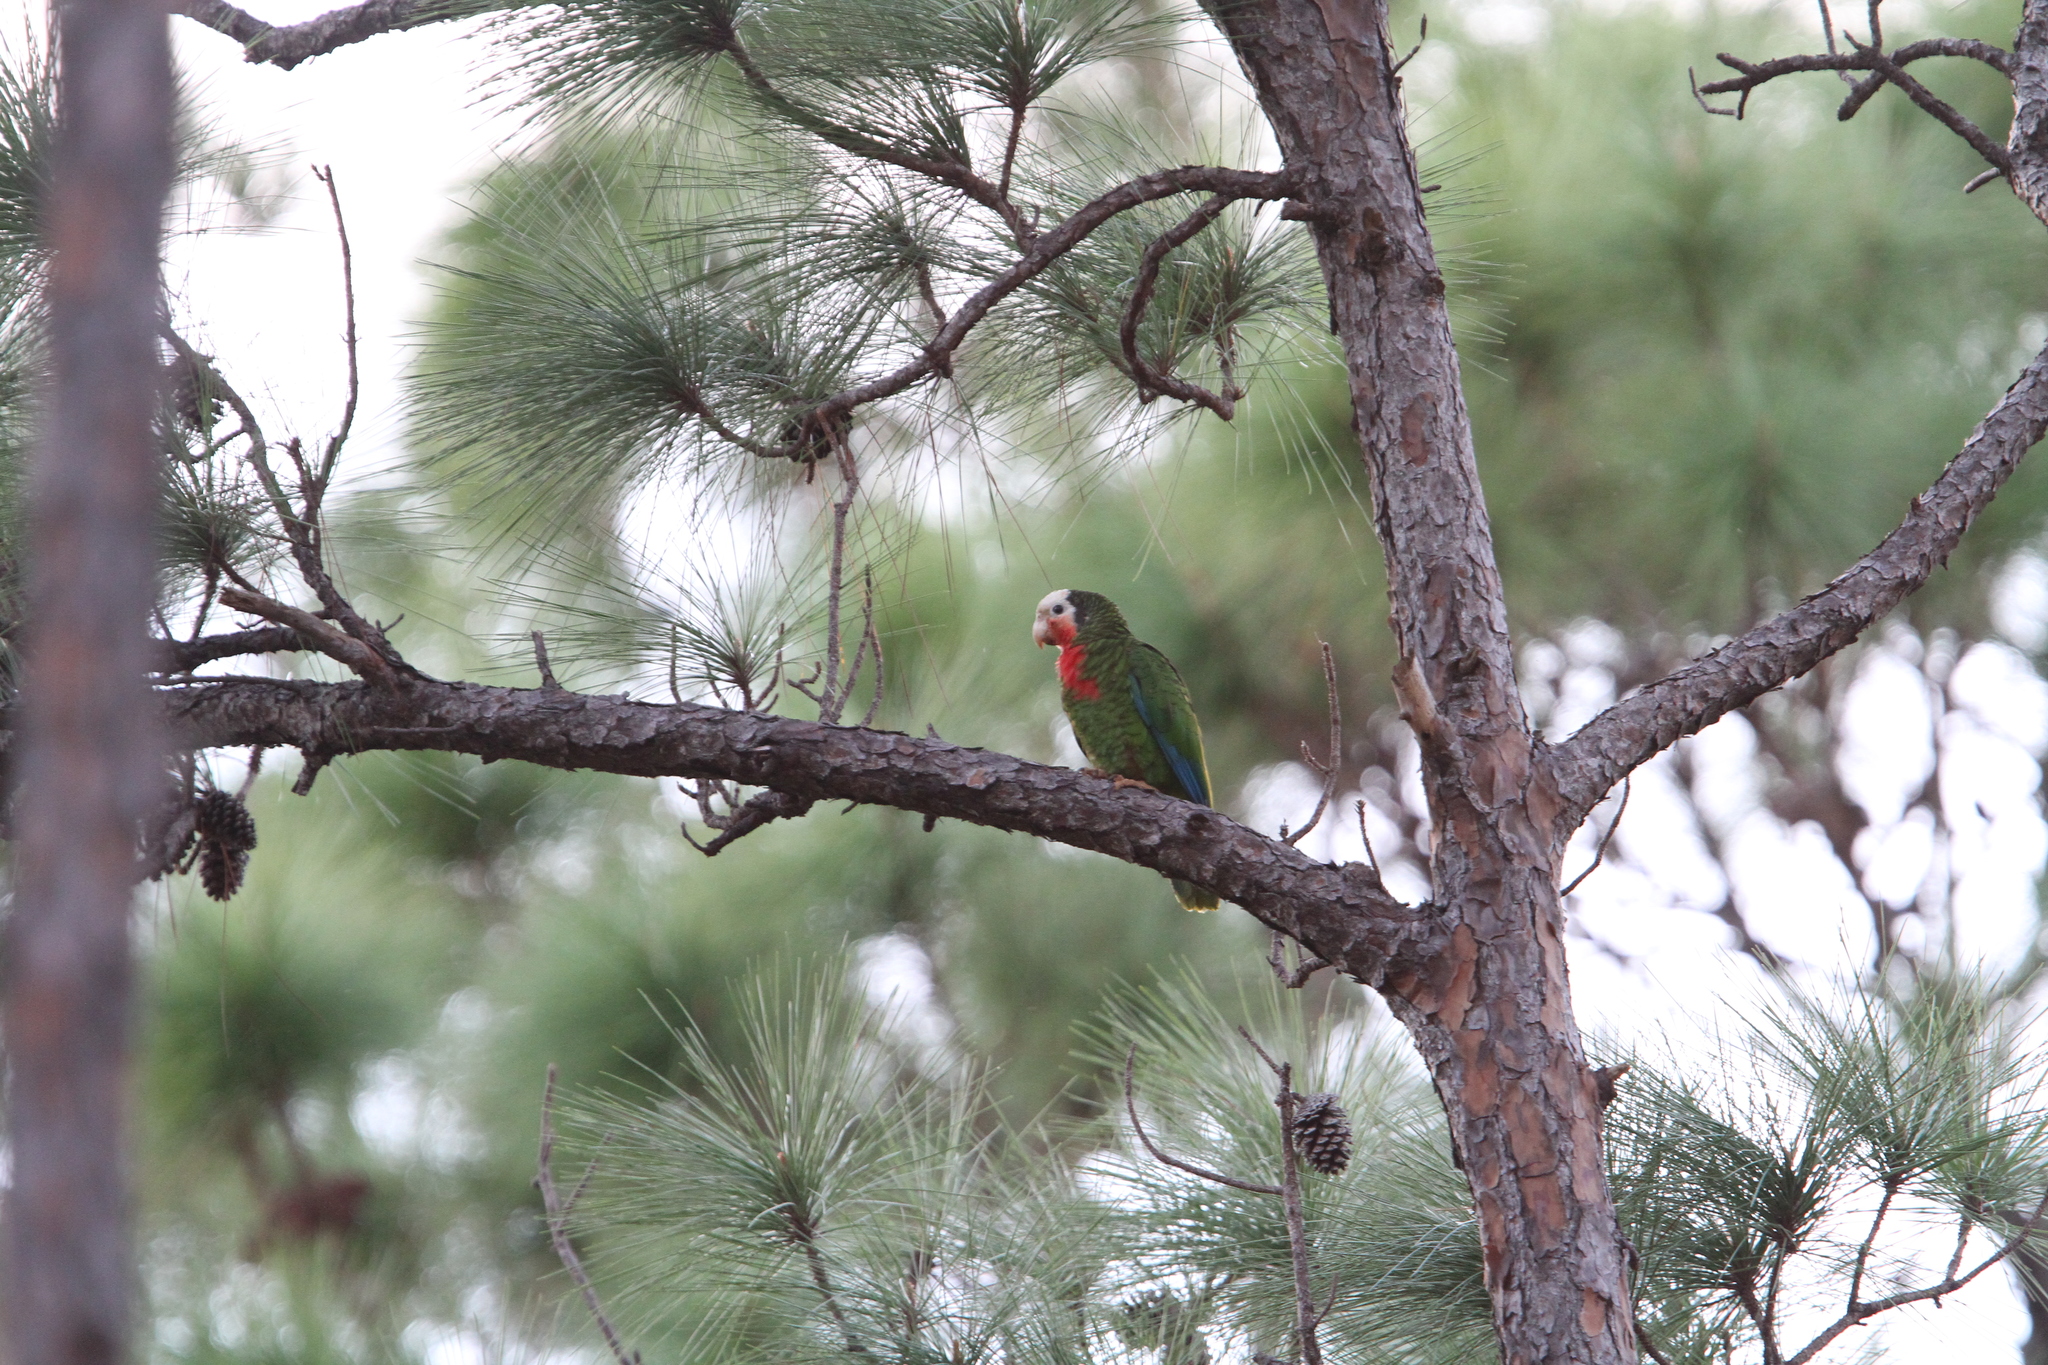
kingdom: Animalia
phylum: Chordata
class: Aves
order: Psittaciformes
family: Psittacidae
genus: Amazona
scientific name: Amazona leucocephala
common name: Cuban amazon
